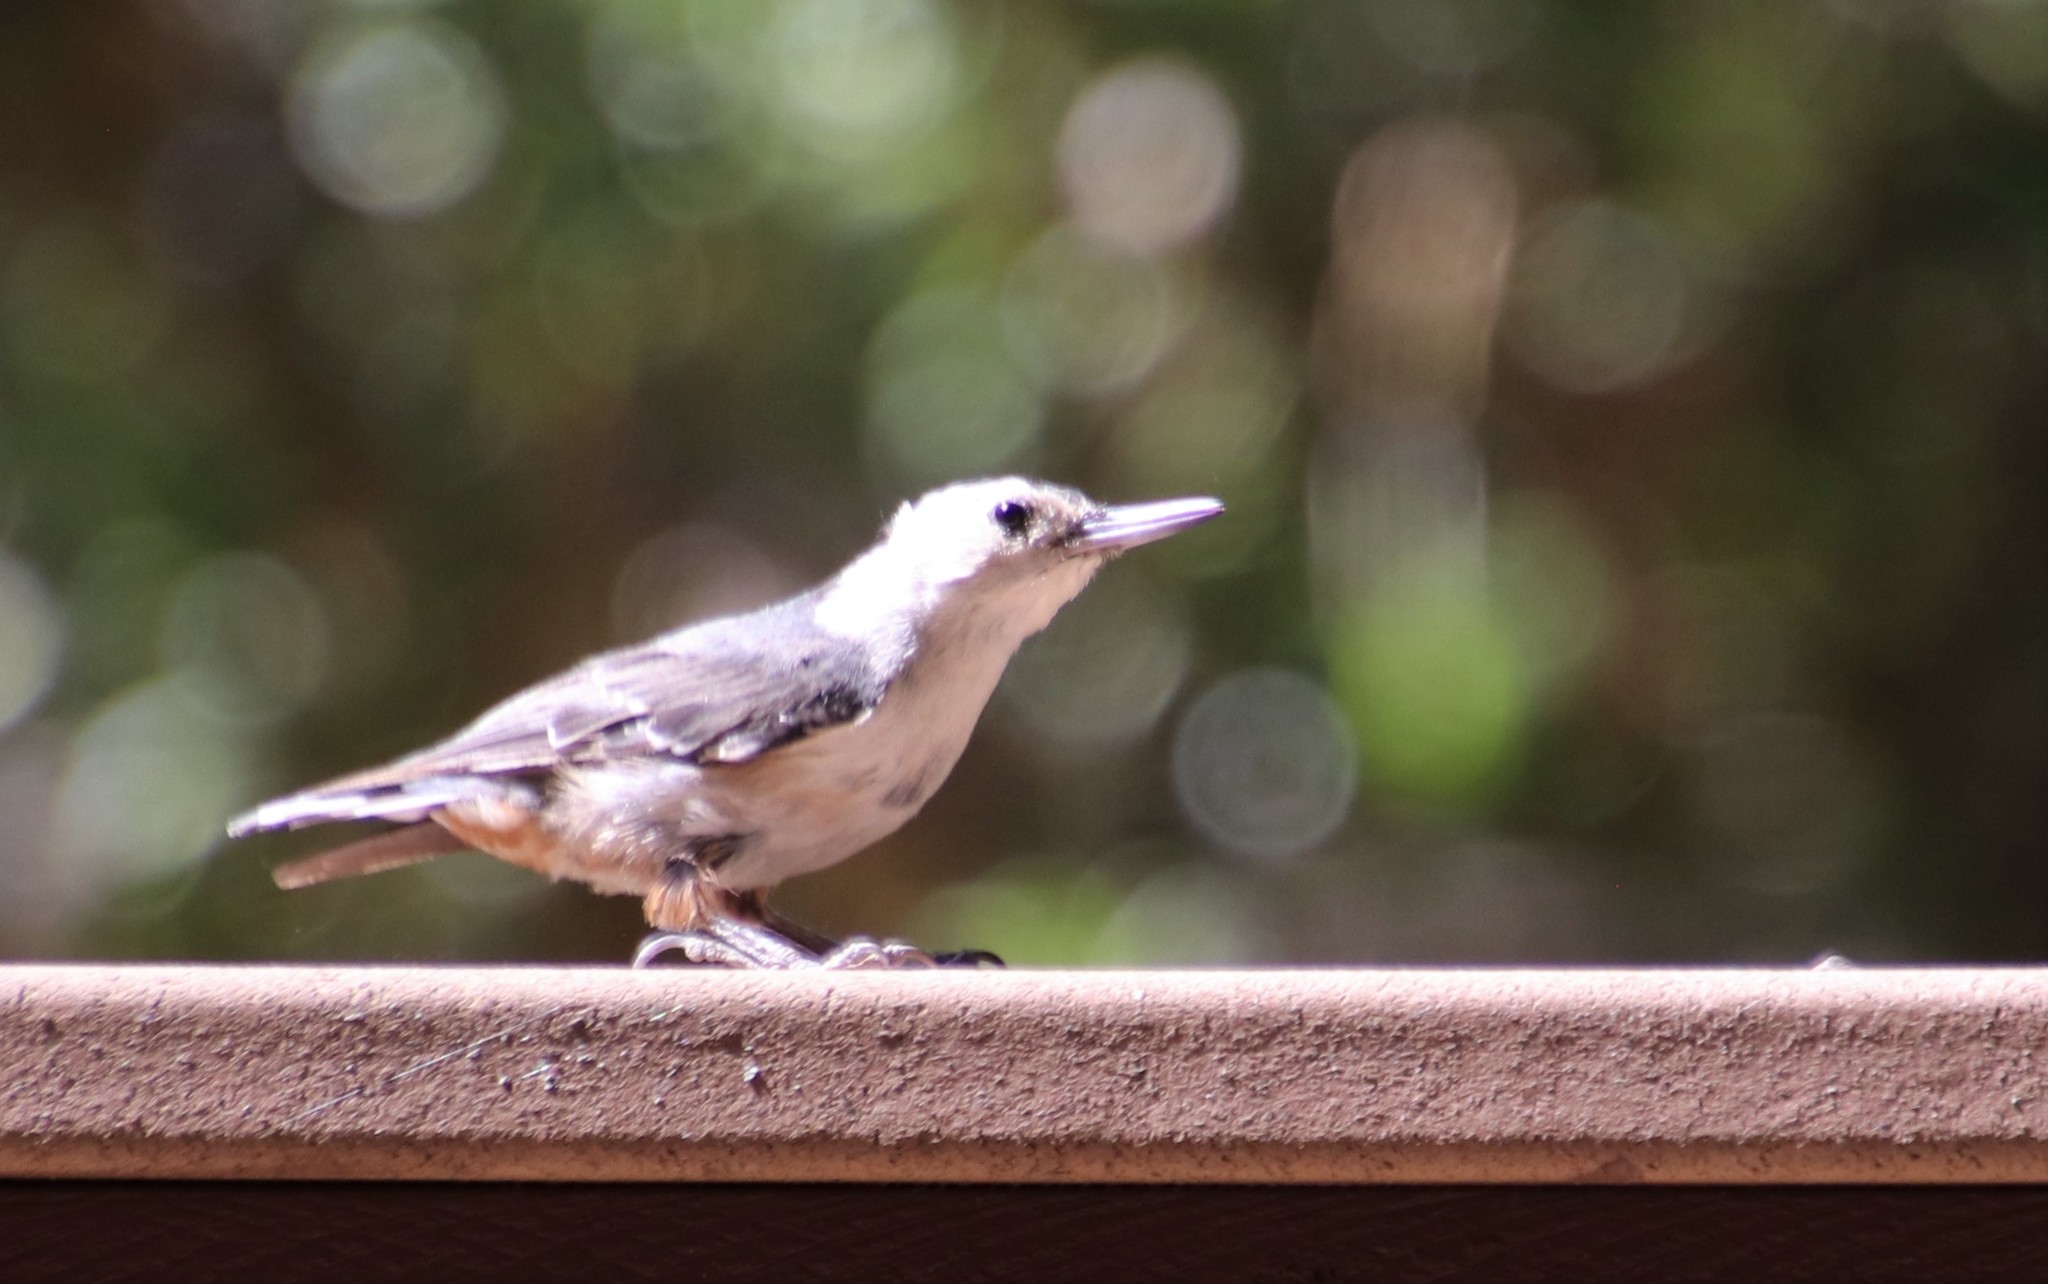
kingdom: Animalia
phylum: Chordata
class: Aves
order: Passeriformes
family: Sittidae
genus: Sitta
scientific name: Sitta carolinensis
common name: White-breasted nuthatch
